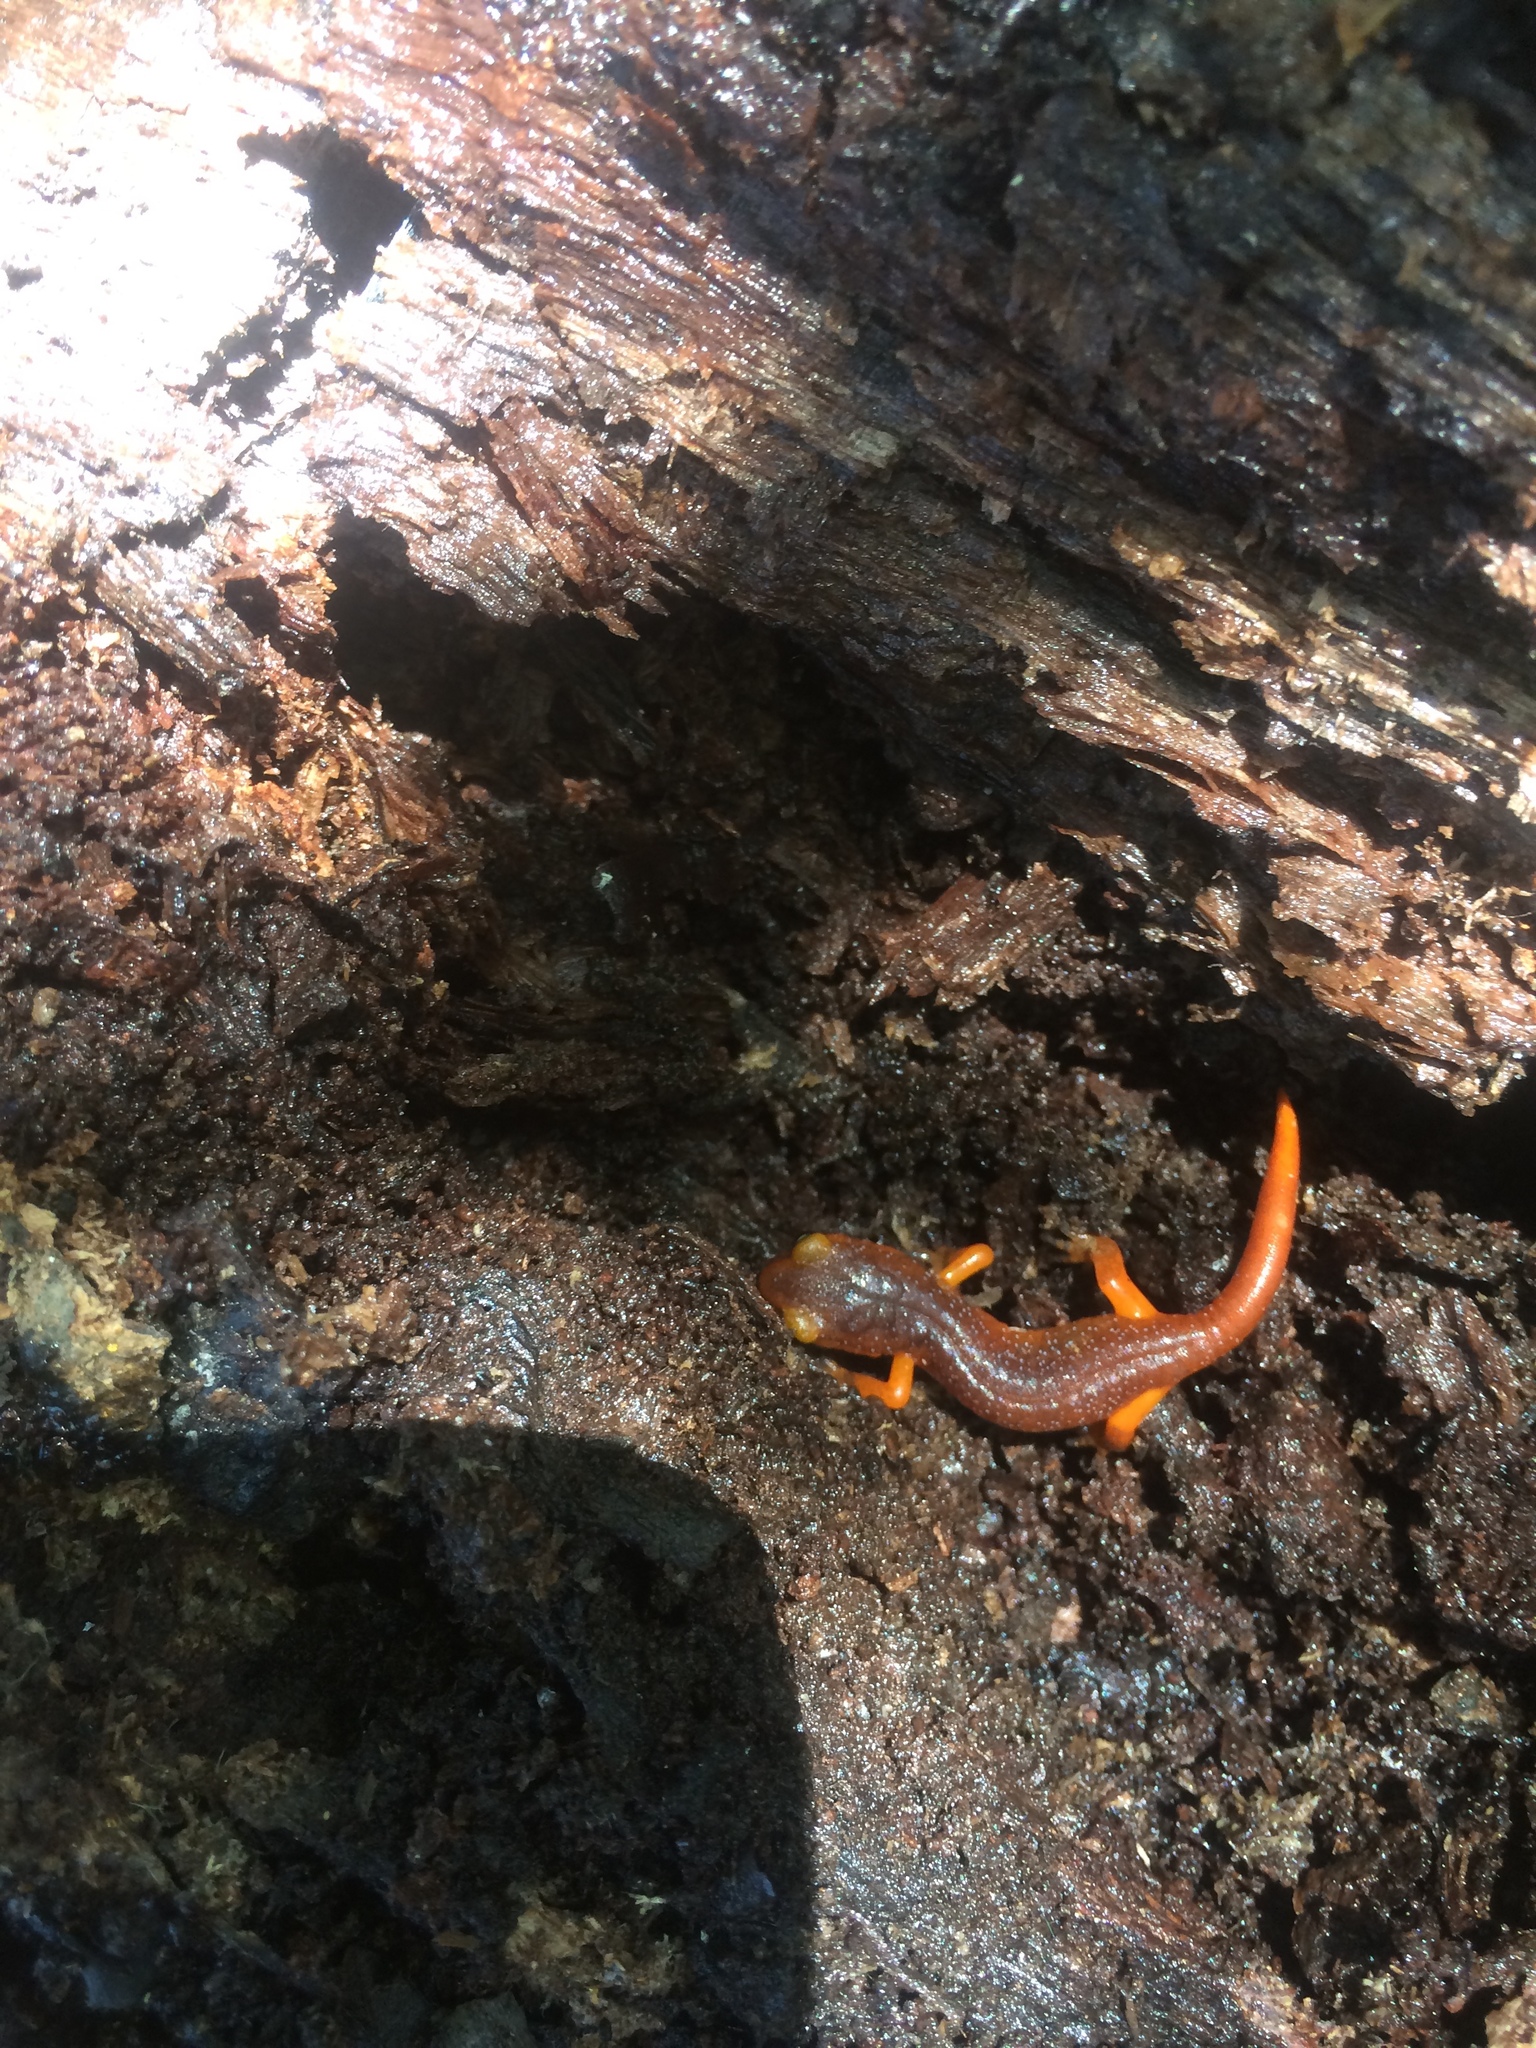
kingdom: Animalia
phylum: Chordata
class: Amphibia
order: Caudata
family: Plethodontidae
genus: Ensatina
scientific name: Ensatina eschscholtzii
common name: Ensatina
